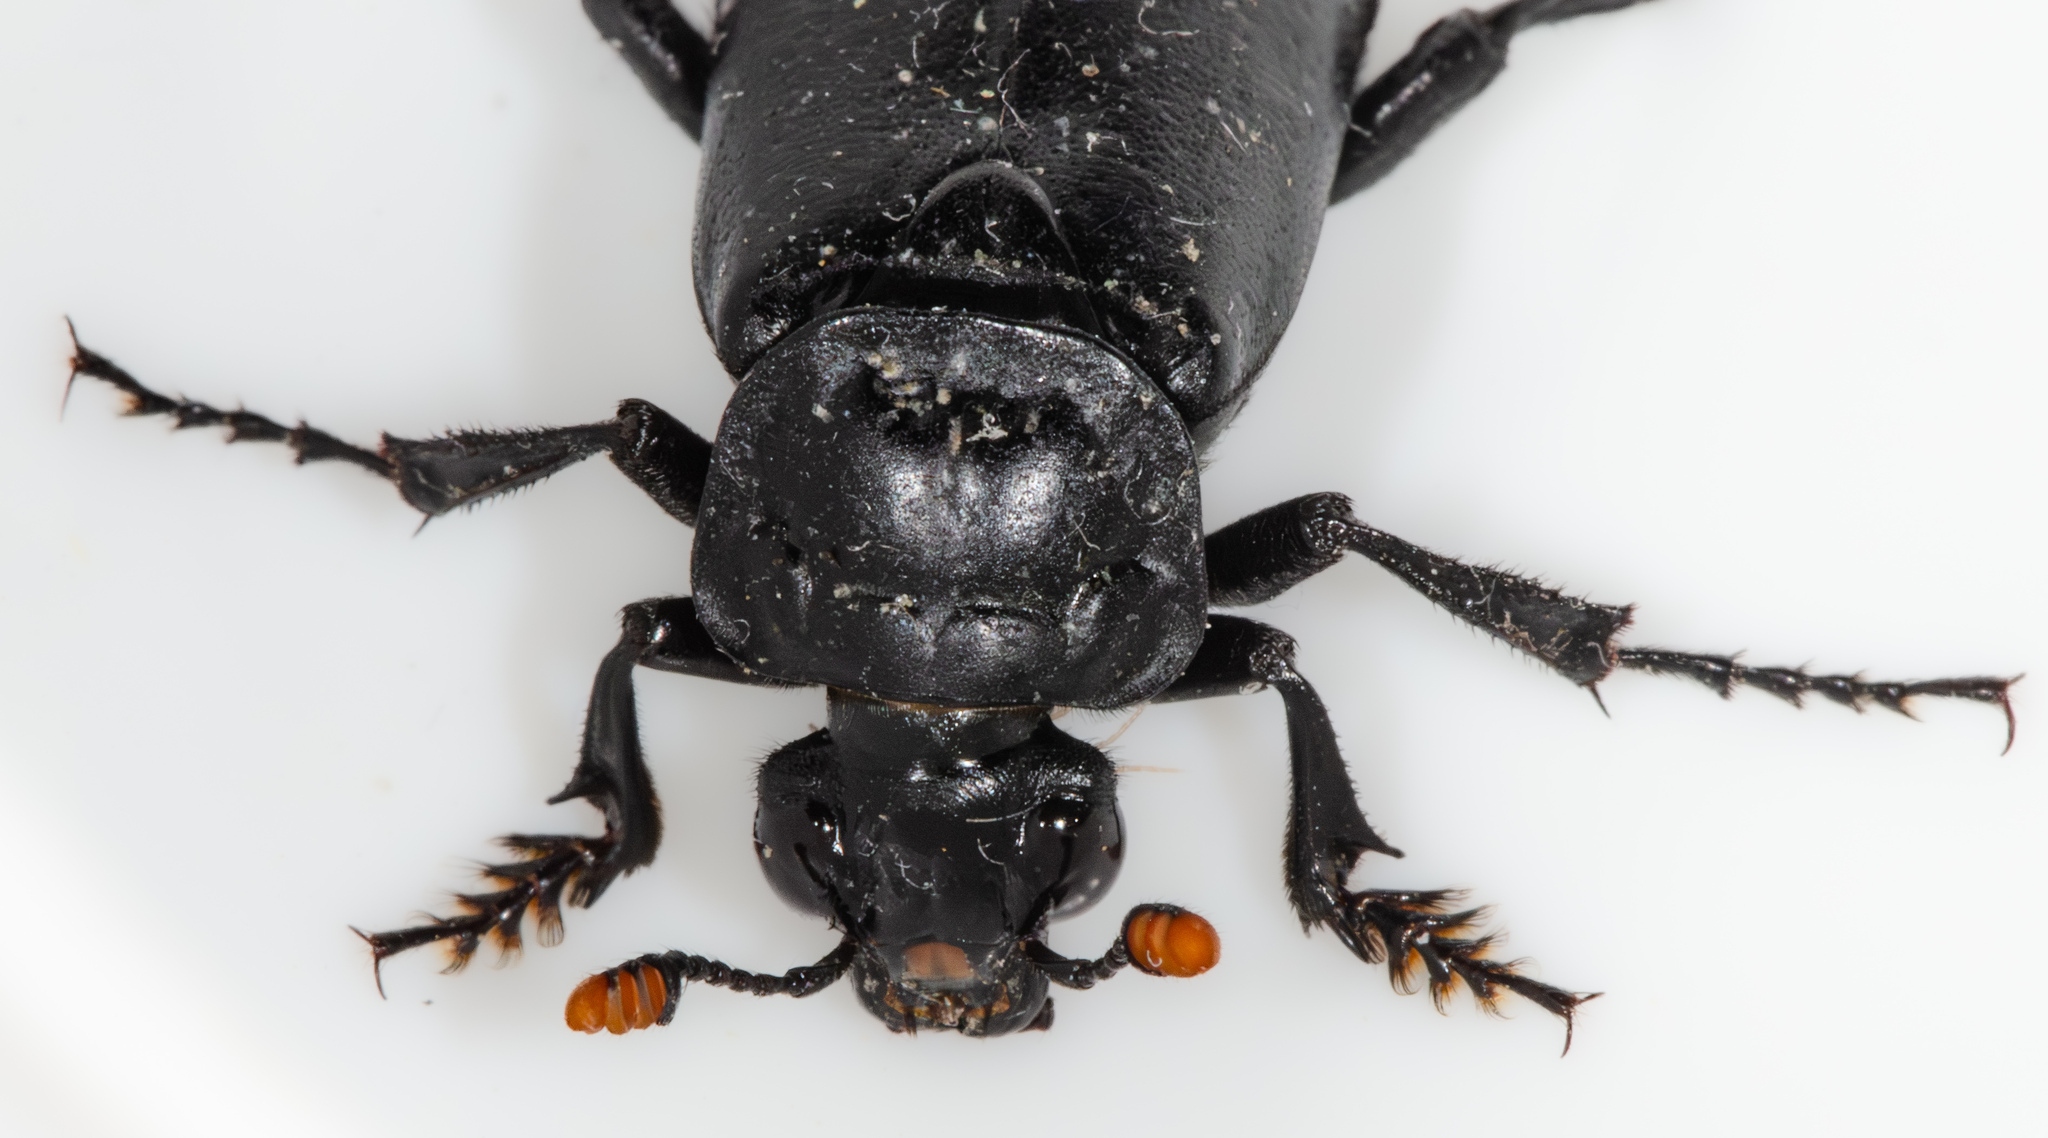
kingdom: Animalia
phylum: Arthropoda
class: Insecta
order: Coleoptera
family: Staphylinidae
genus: Nicrophorus
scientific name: Nicrophorus nigrita
